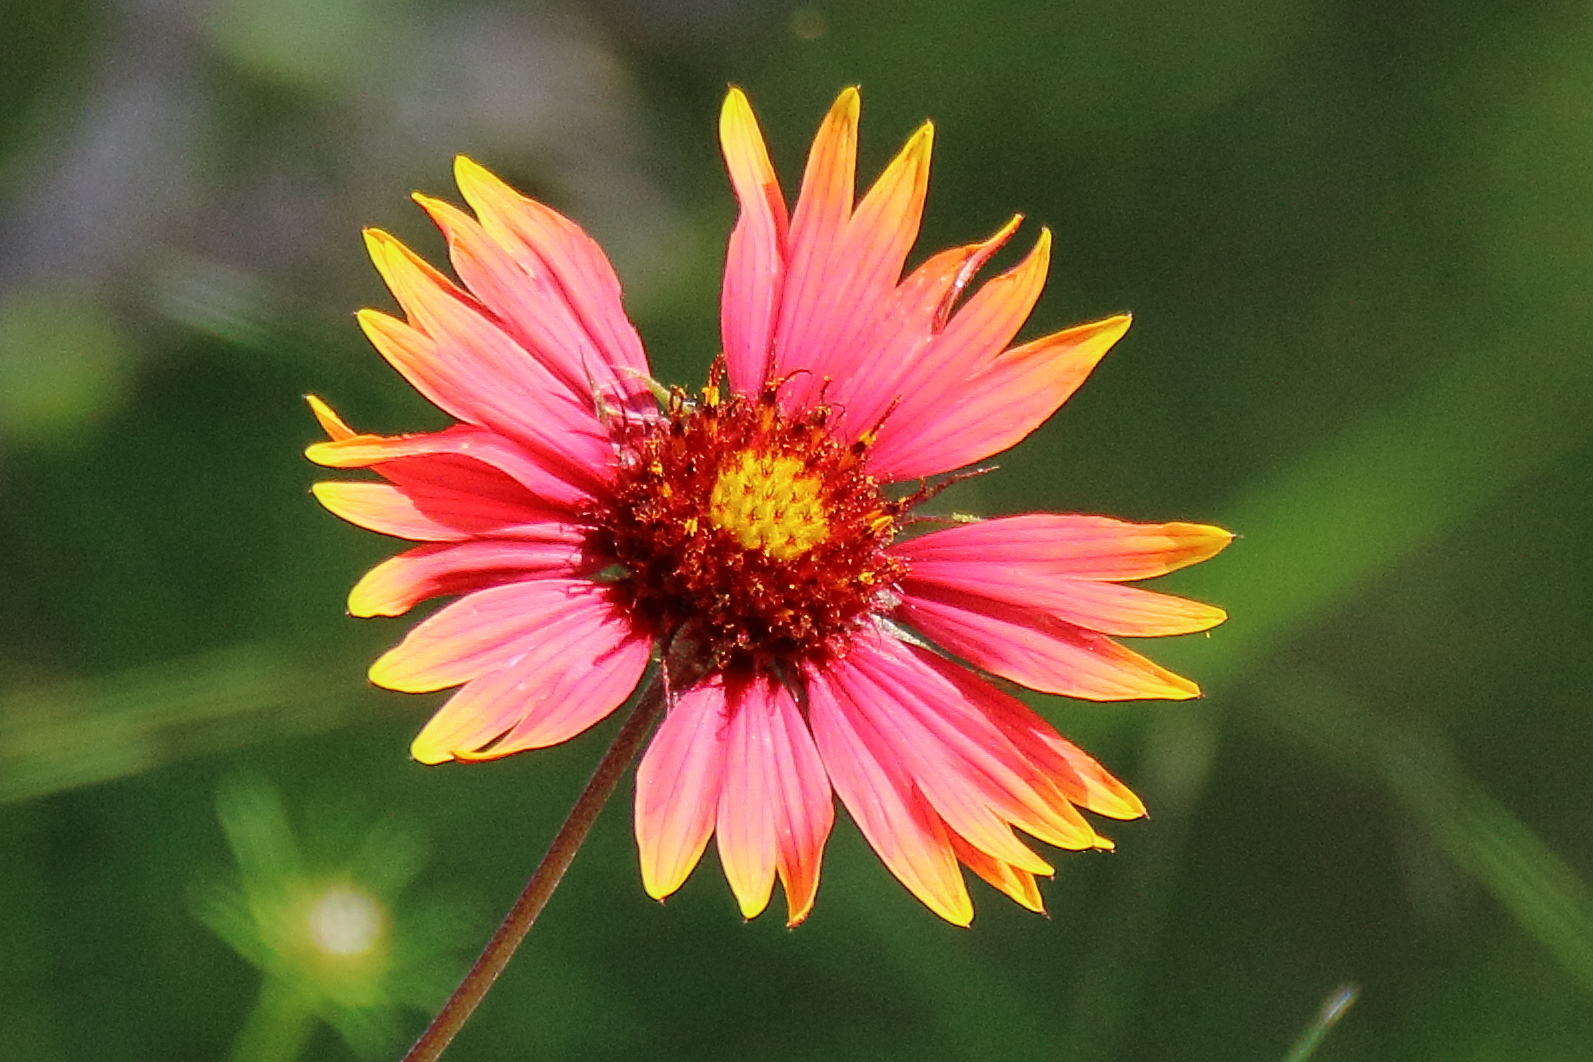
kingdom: Plantae
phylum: Tracheophyta
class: Magnoliopsida
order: Asterales
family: Asteraceae
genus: Gaillardia
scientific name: Gaillardia pulchella
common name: Firewheel
